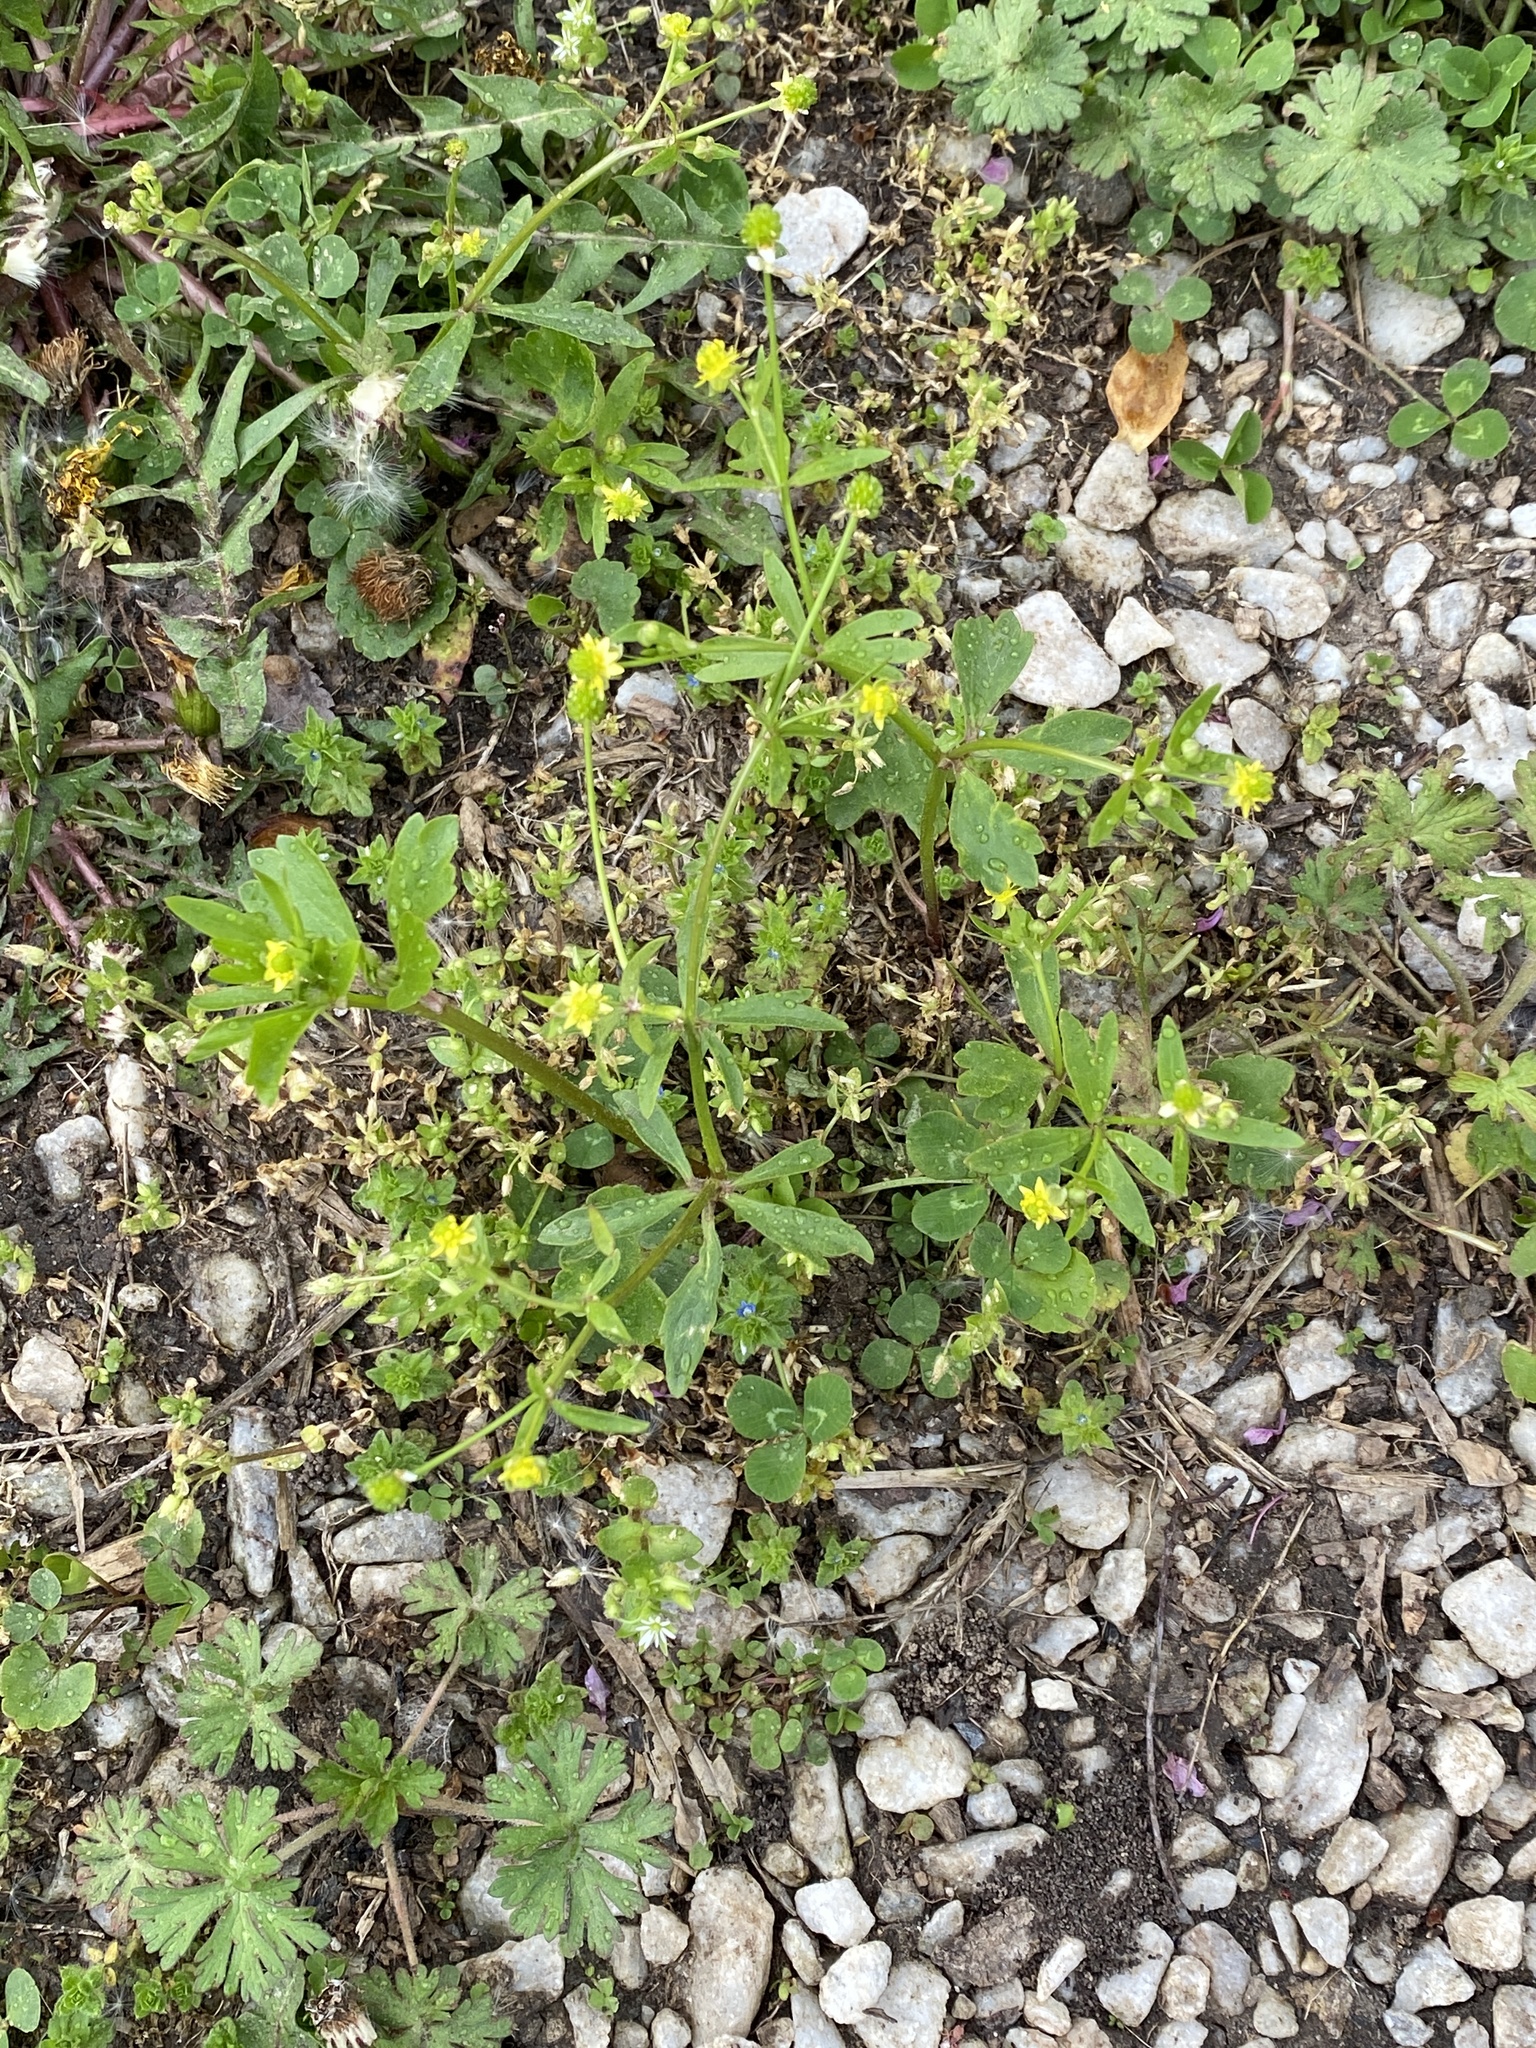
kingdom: Plantae
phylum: Tracheophyta
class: Magnoliopsida
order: Ranunculales
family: Ranunculaceae
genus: Ranunculus
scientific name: Ranunculus abortivus
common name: Early wood buttercup
